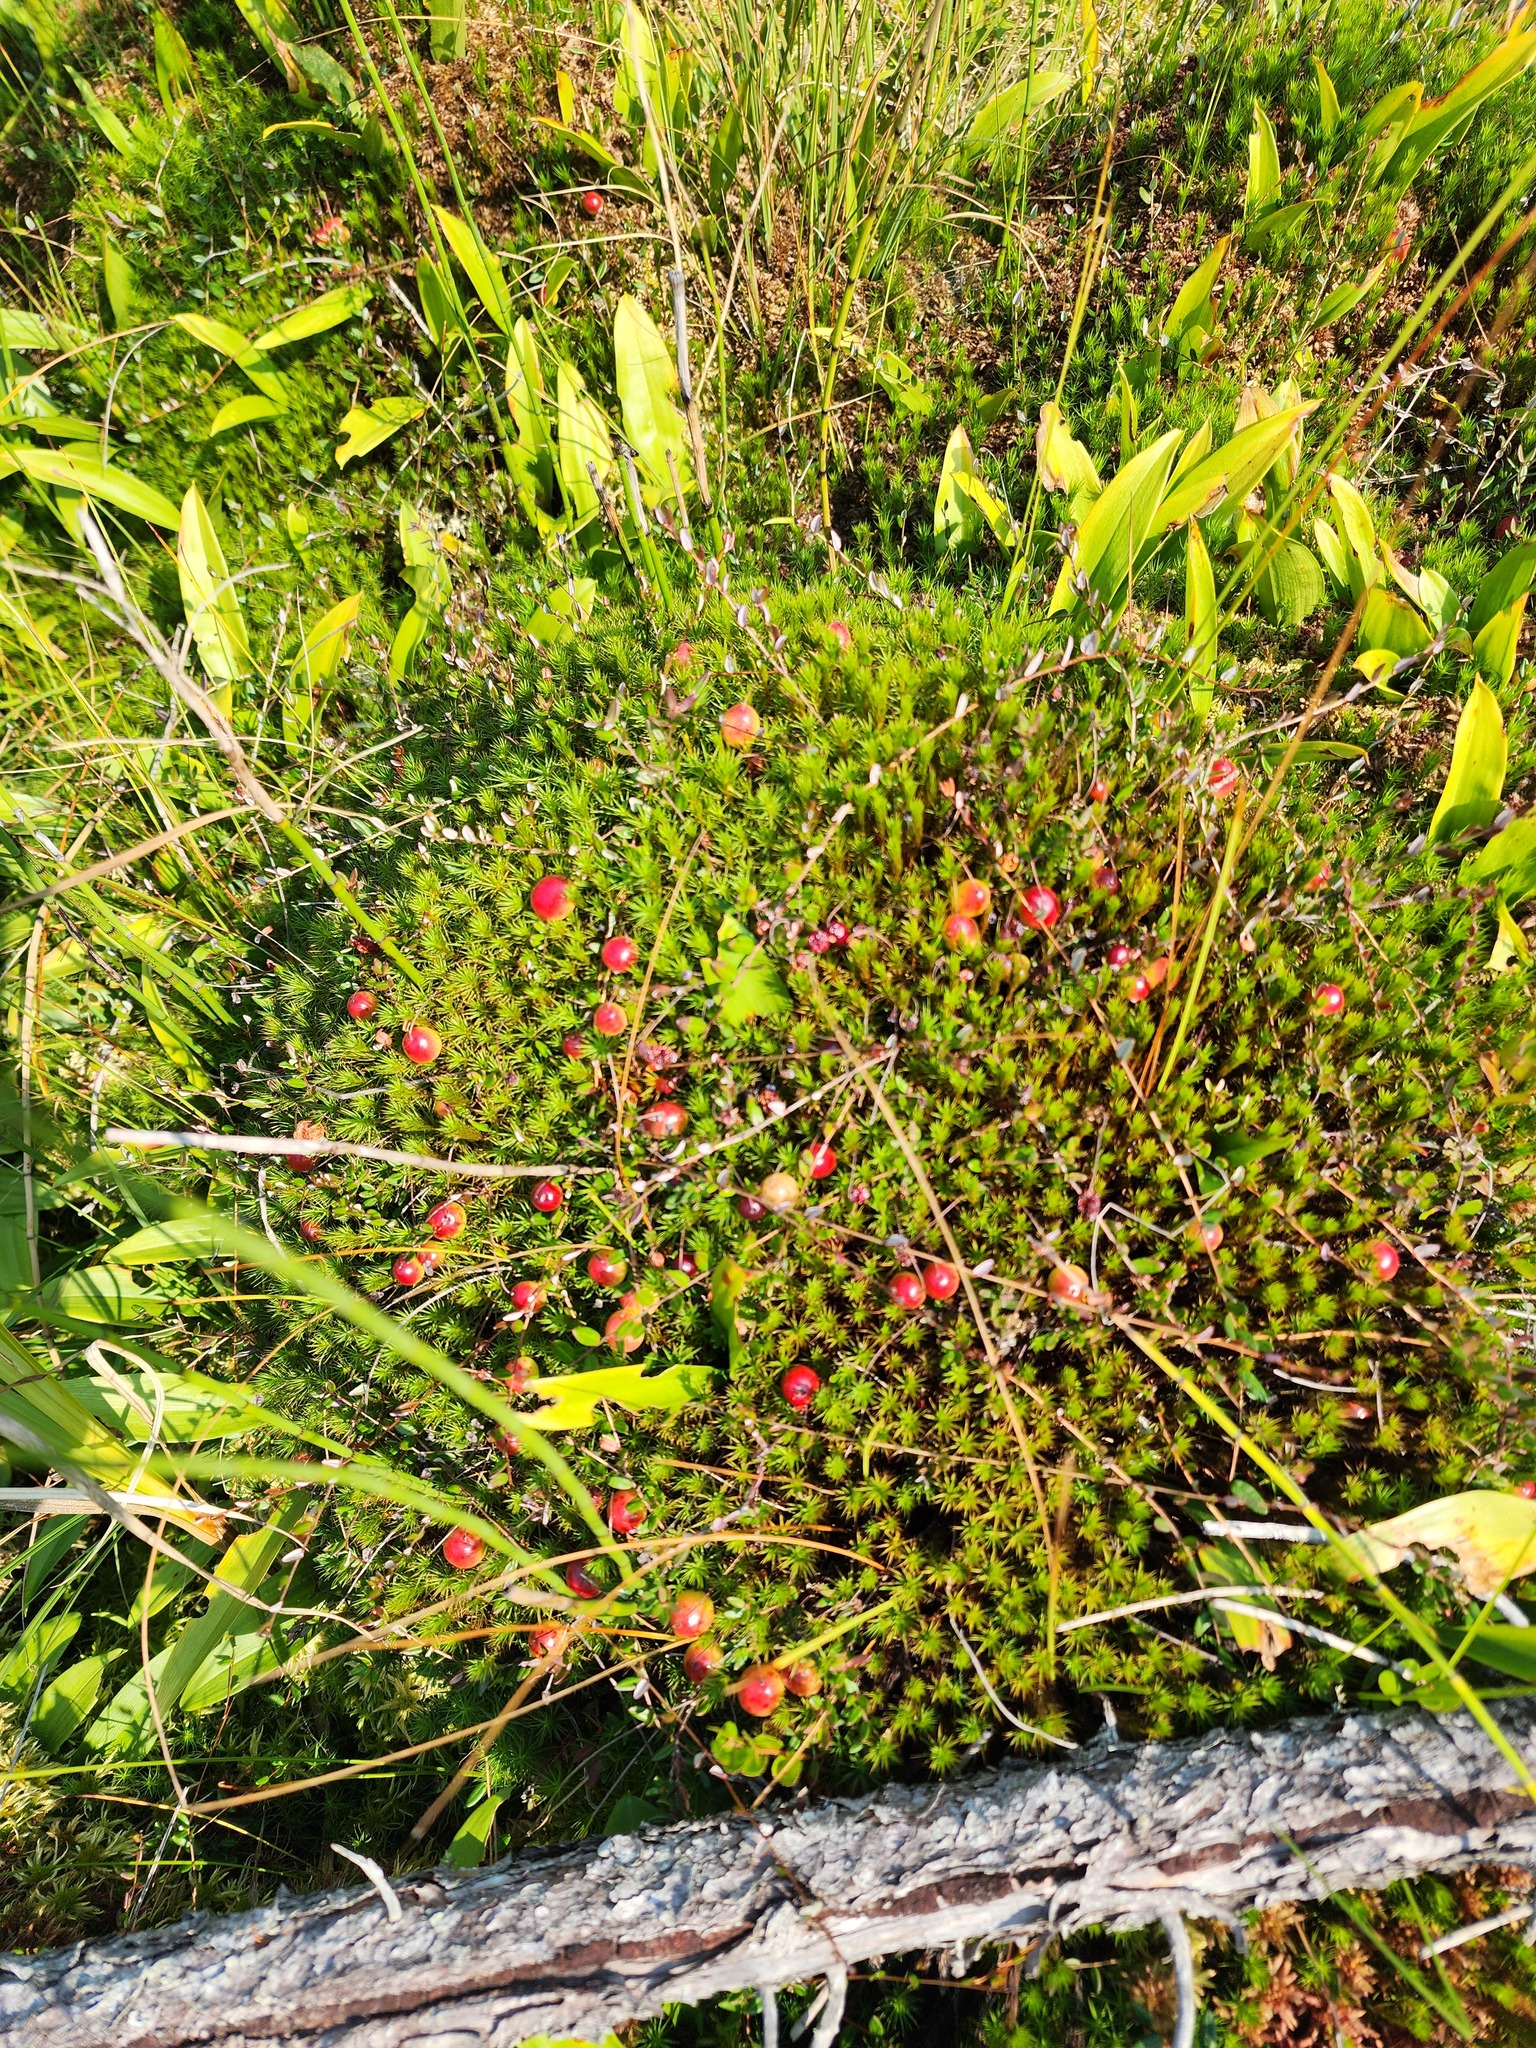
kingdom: Plantae
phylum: Tracheophyta
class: Magnoliopsida
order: Ericales
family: Ericaceae
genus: Vaccinium
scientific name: Vaccinium oxycoccos
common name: Cranberry
